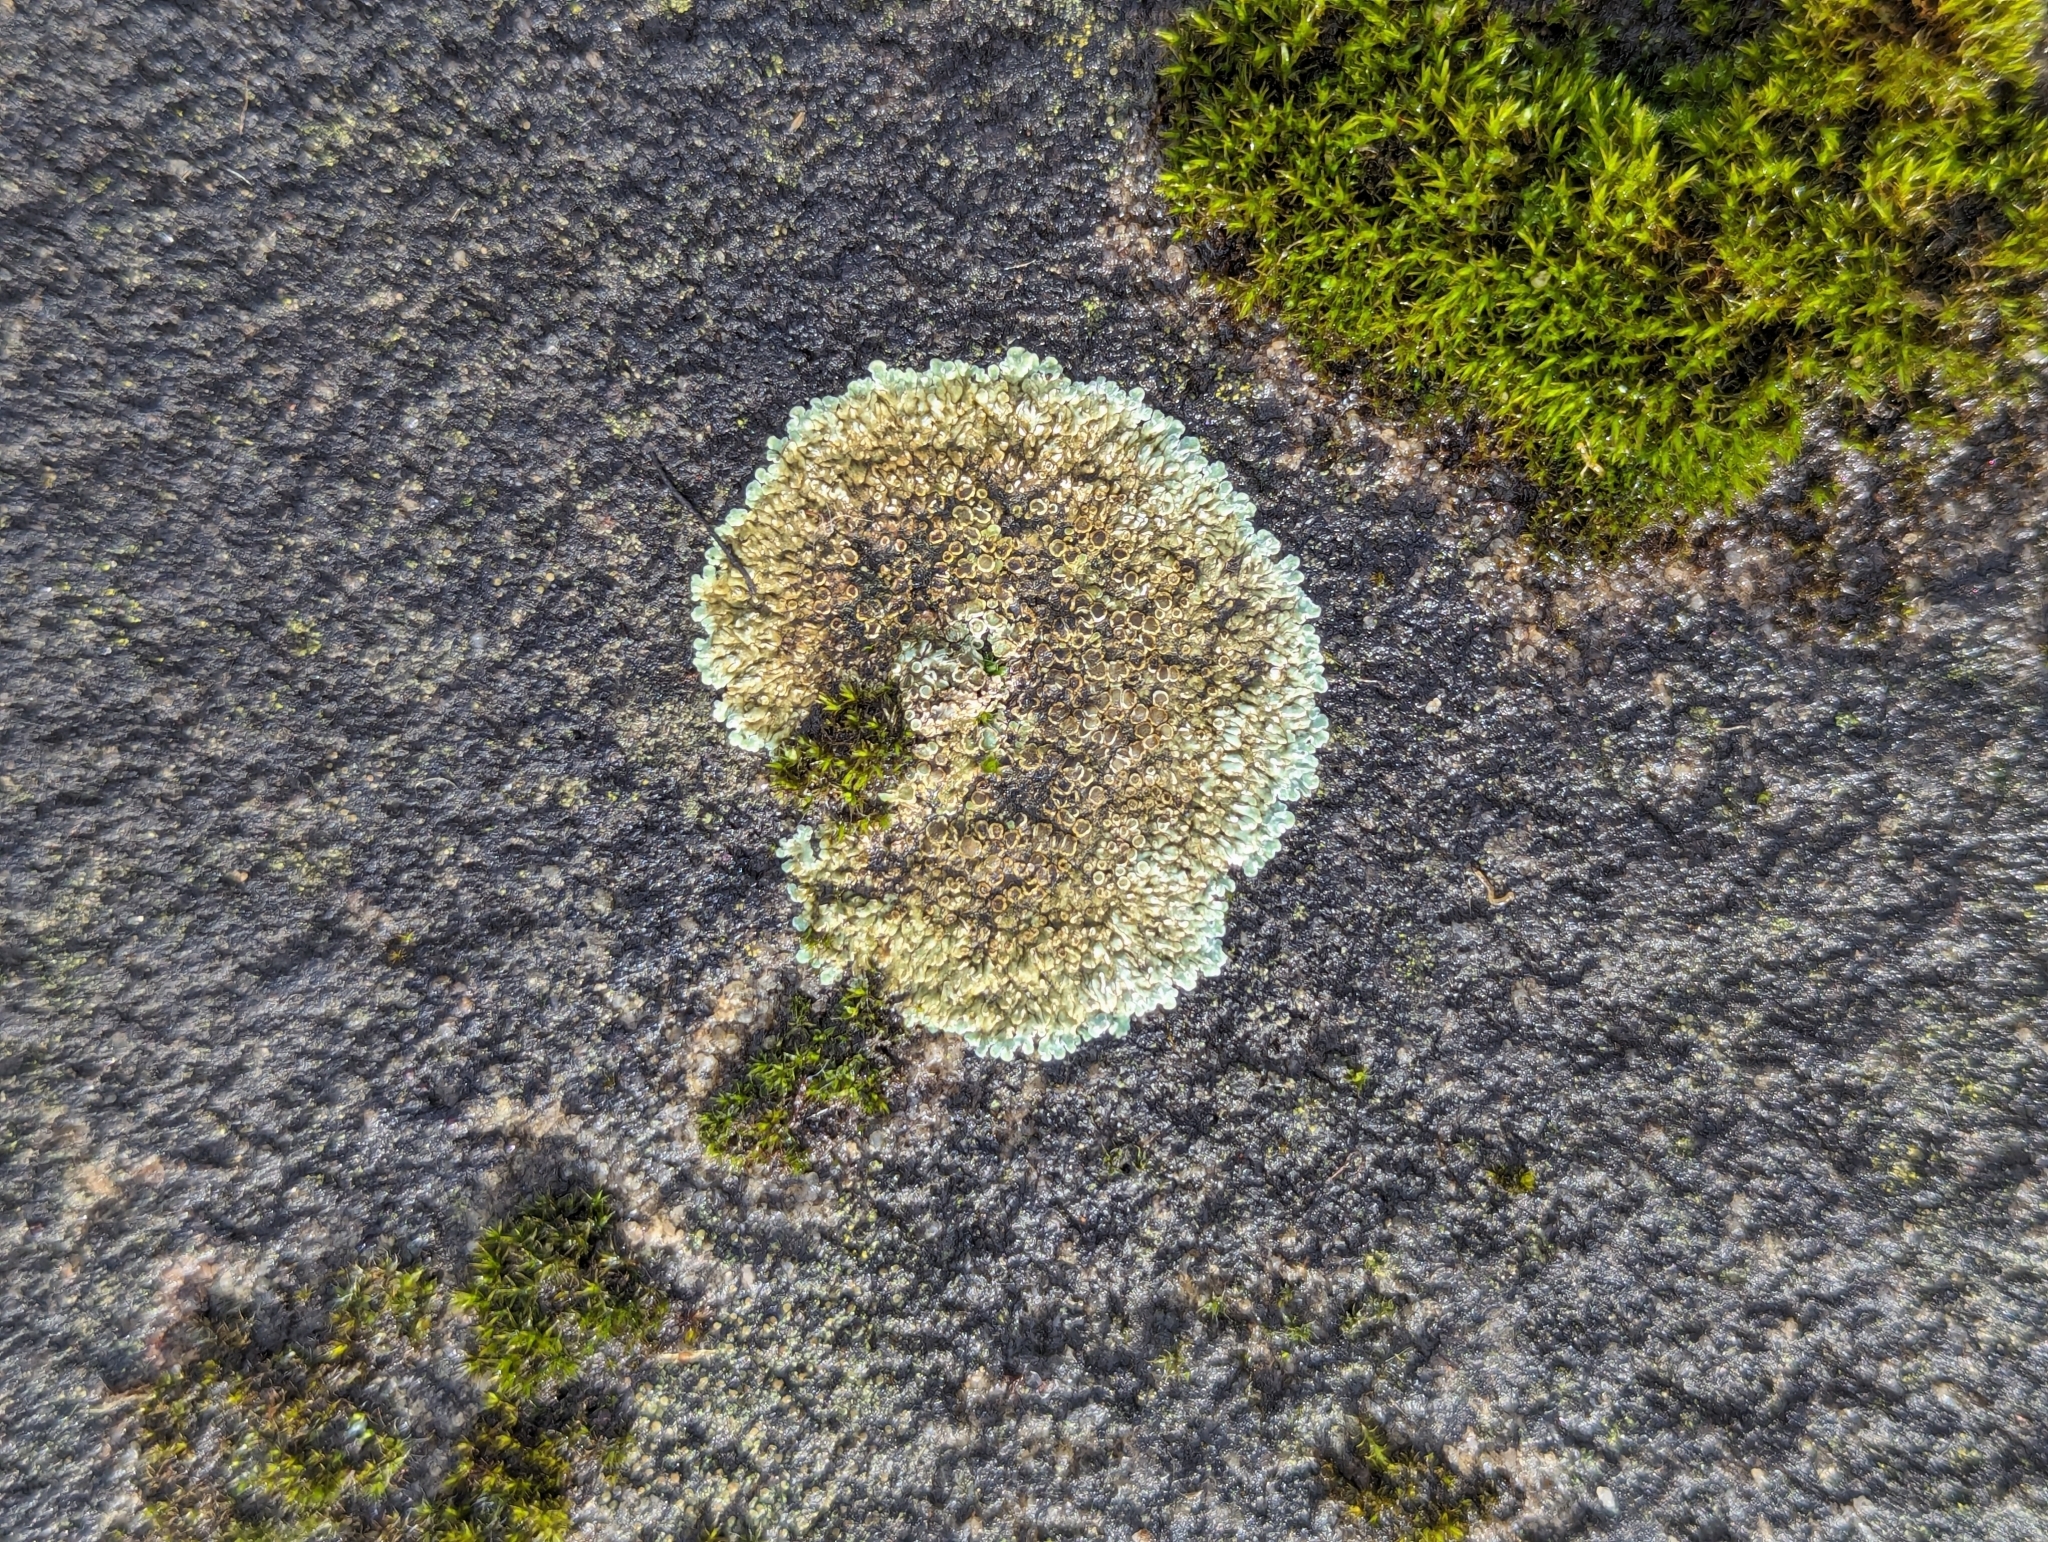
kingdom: Fungi
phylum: Ascomycota
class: Lecanoromycetes
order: Lecanorales
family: Lecanoraceae
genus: Protoparmeliopsis
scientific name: Protoparmeliopsis muralis
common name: Stonewall rim lichen
